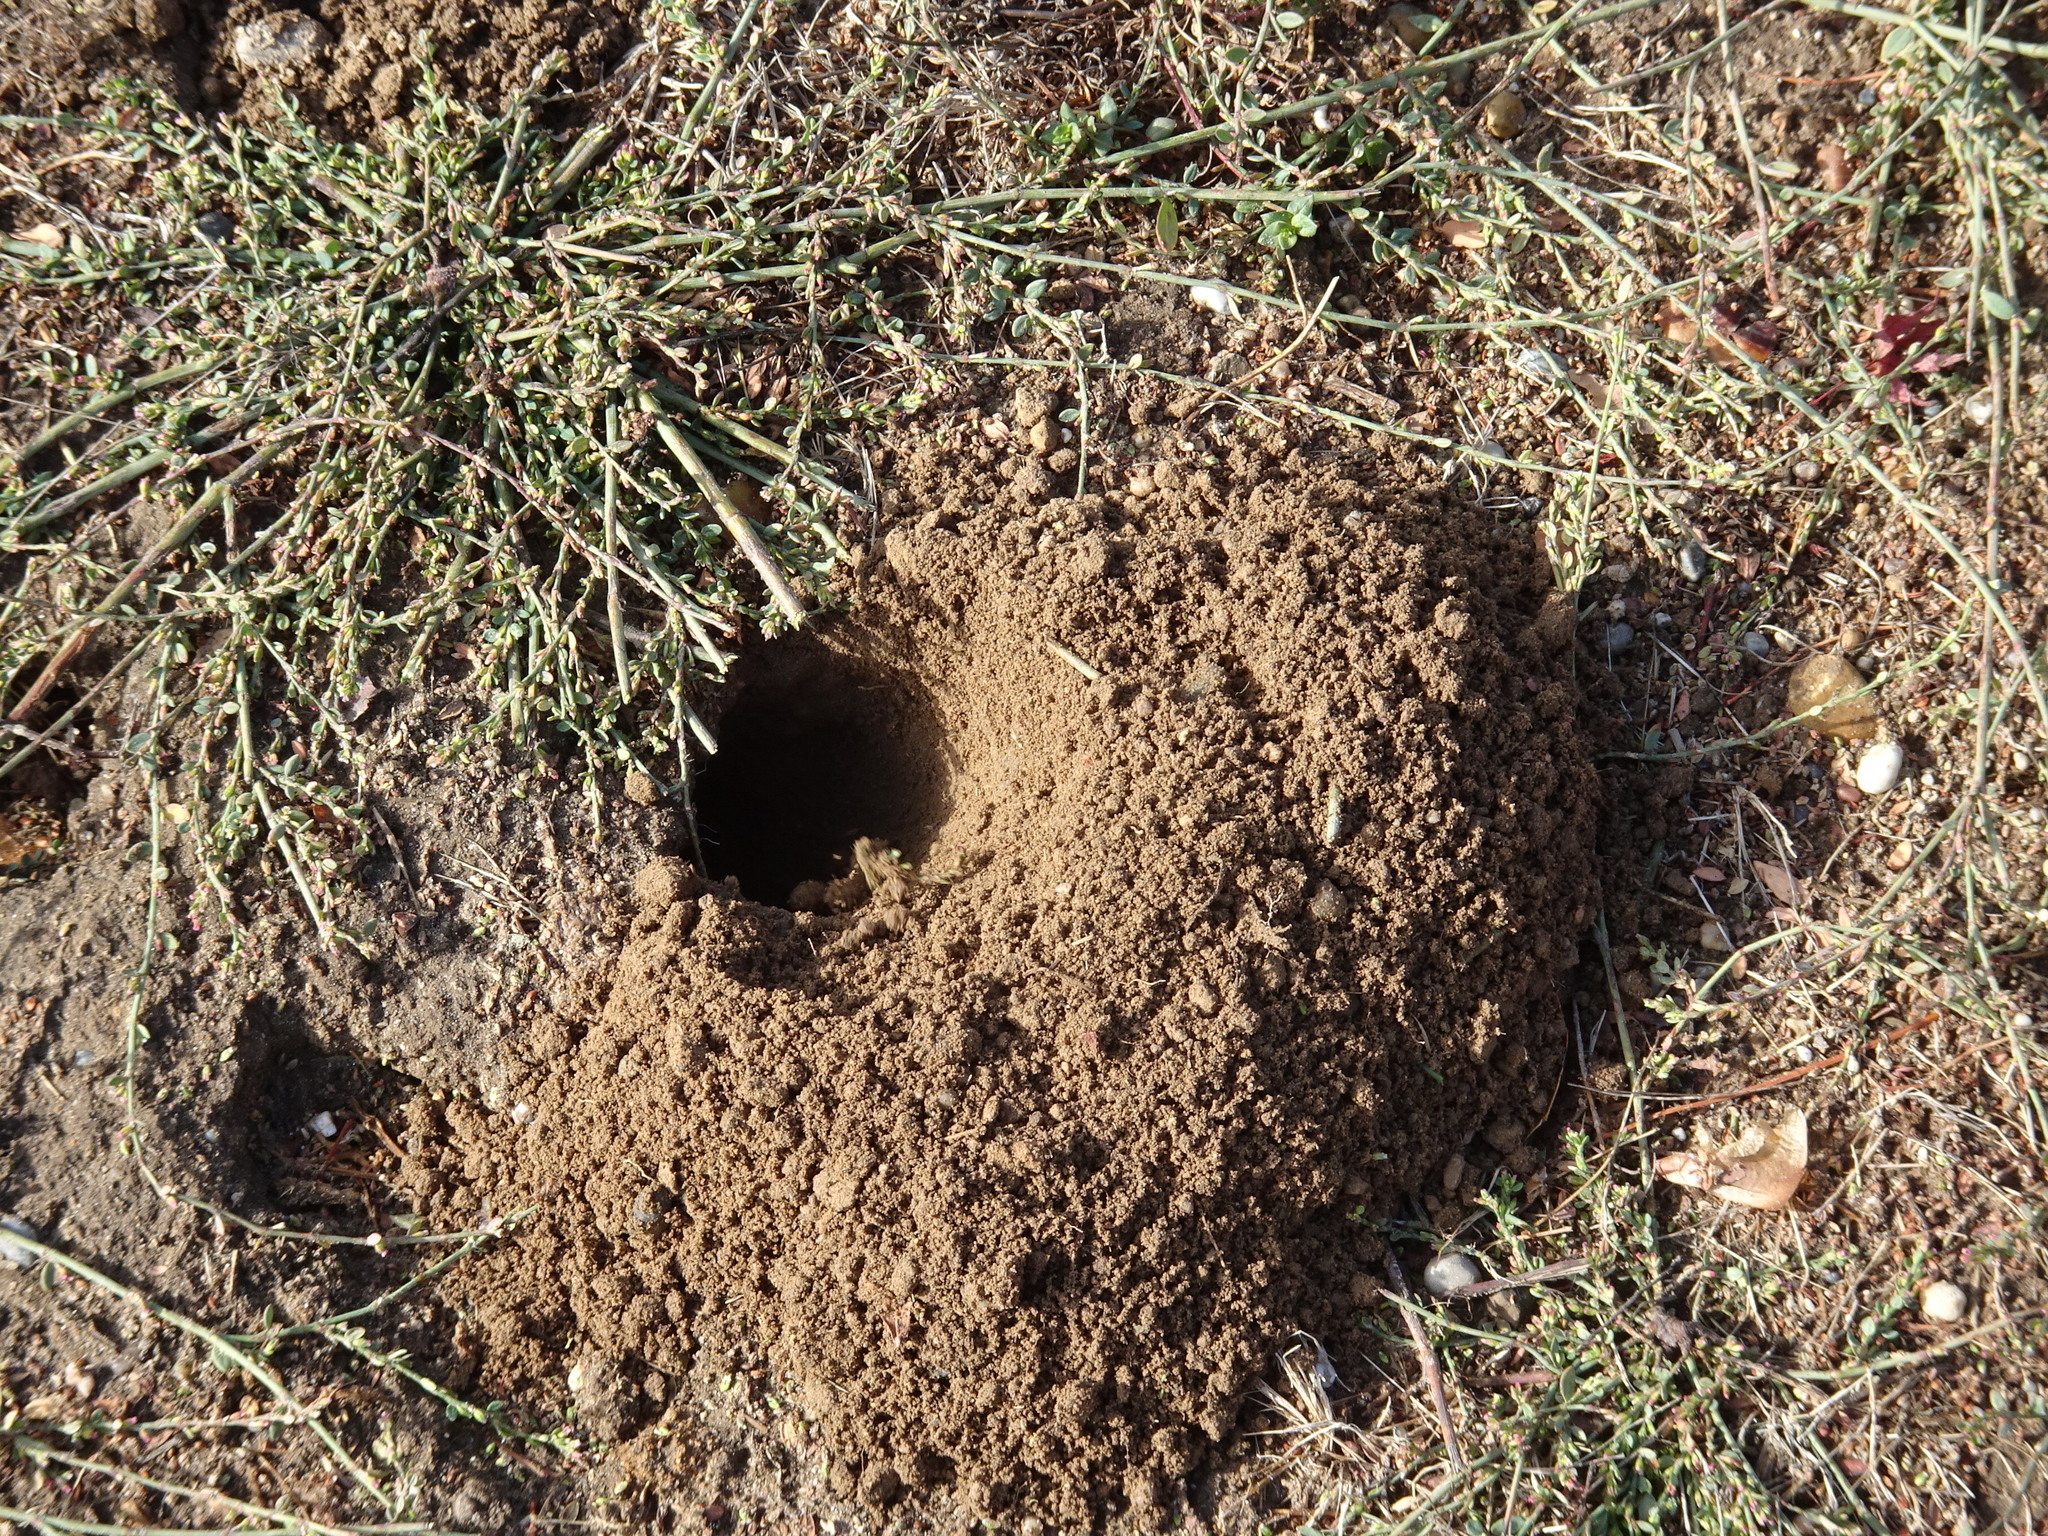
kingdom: Animalia
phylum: Chordata
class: Mammalia
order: Rodentia
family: Geomyidae
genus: Thomomys
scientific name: Thomomys bottae
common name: Botta's pocket gopher
